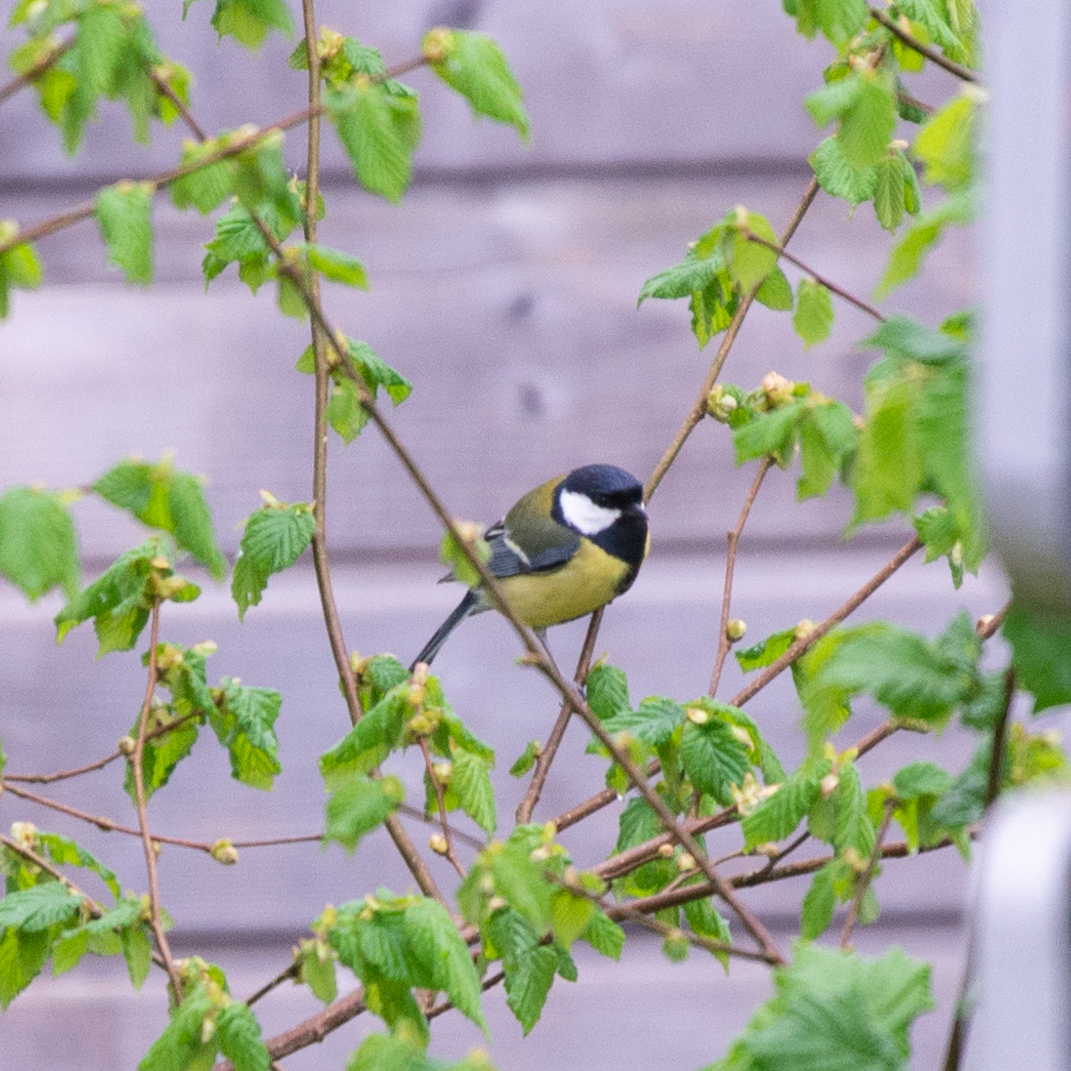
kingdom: Animalia
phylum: Chordata
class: Aves
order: Passeriformes
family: Paridae
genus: Parus
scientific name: Parus major
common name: Great tit
